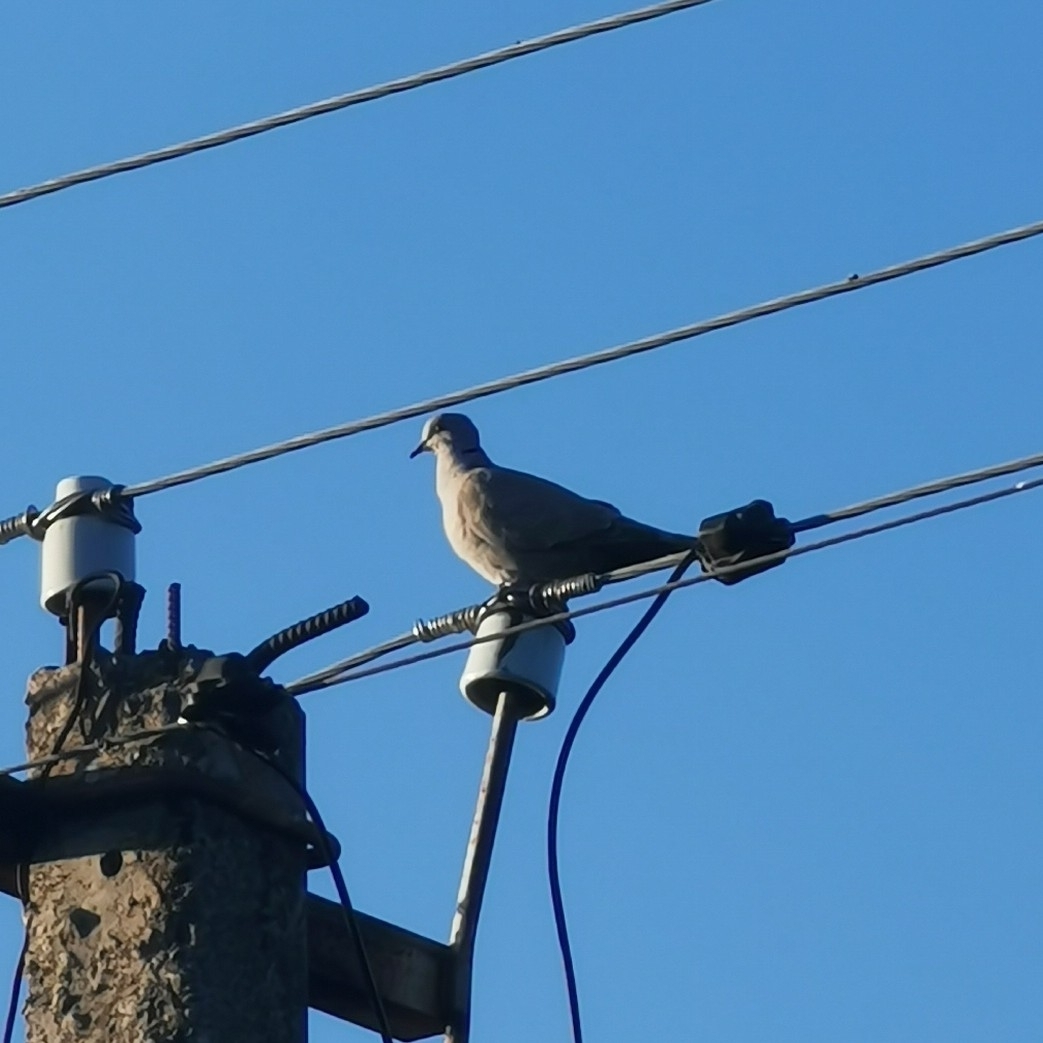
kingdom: Animalia
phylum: Chordata
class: Aves
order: Columbiformes
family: Columbidae
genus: Streptopelia
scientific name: Streptopelia decaocto
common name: Eurasian collared dove
